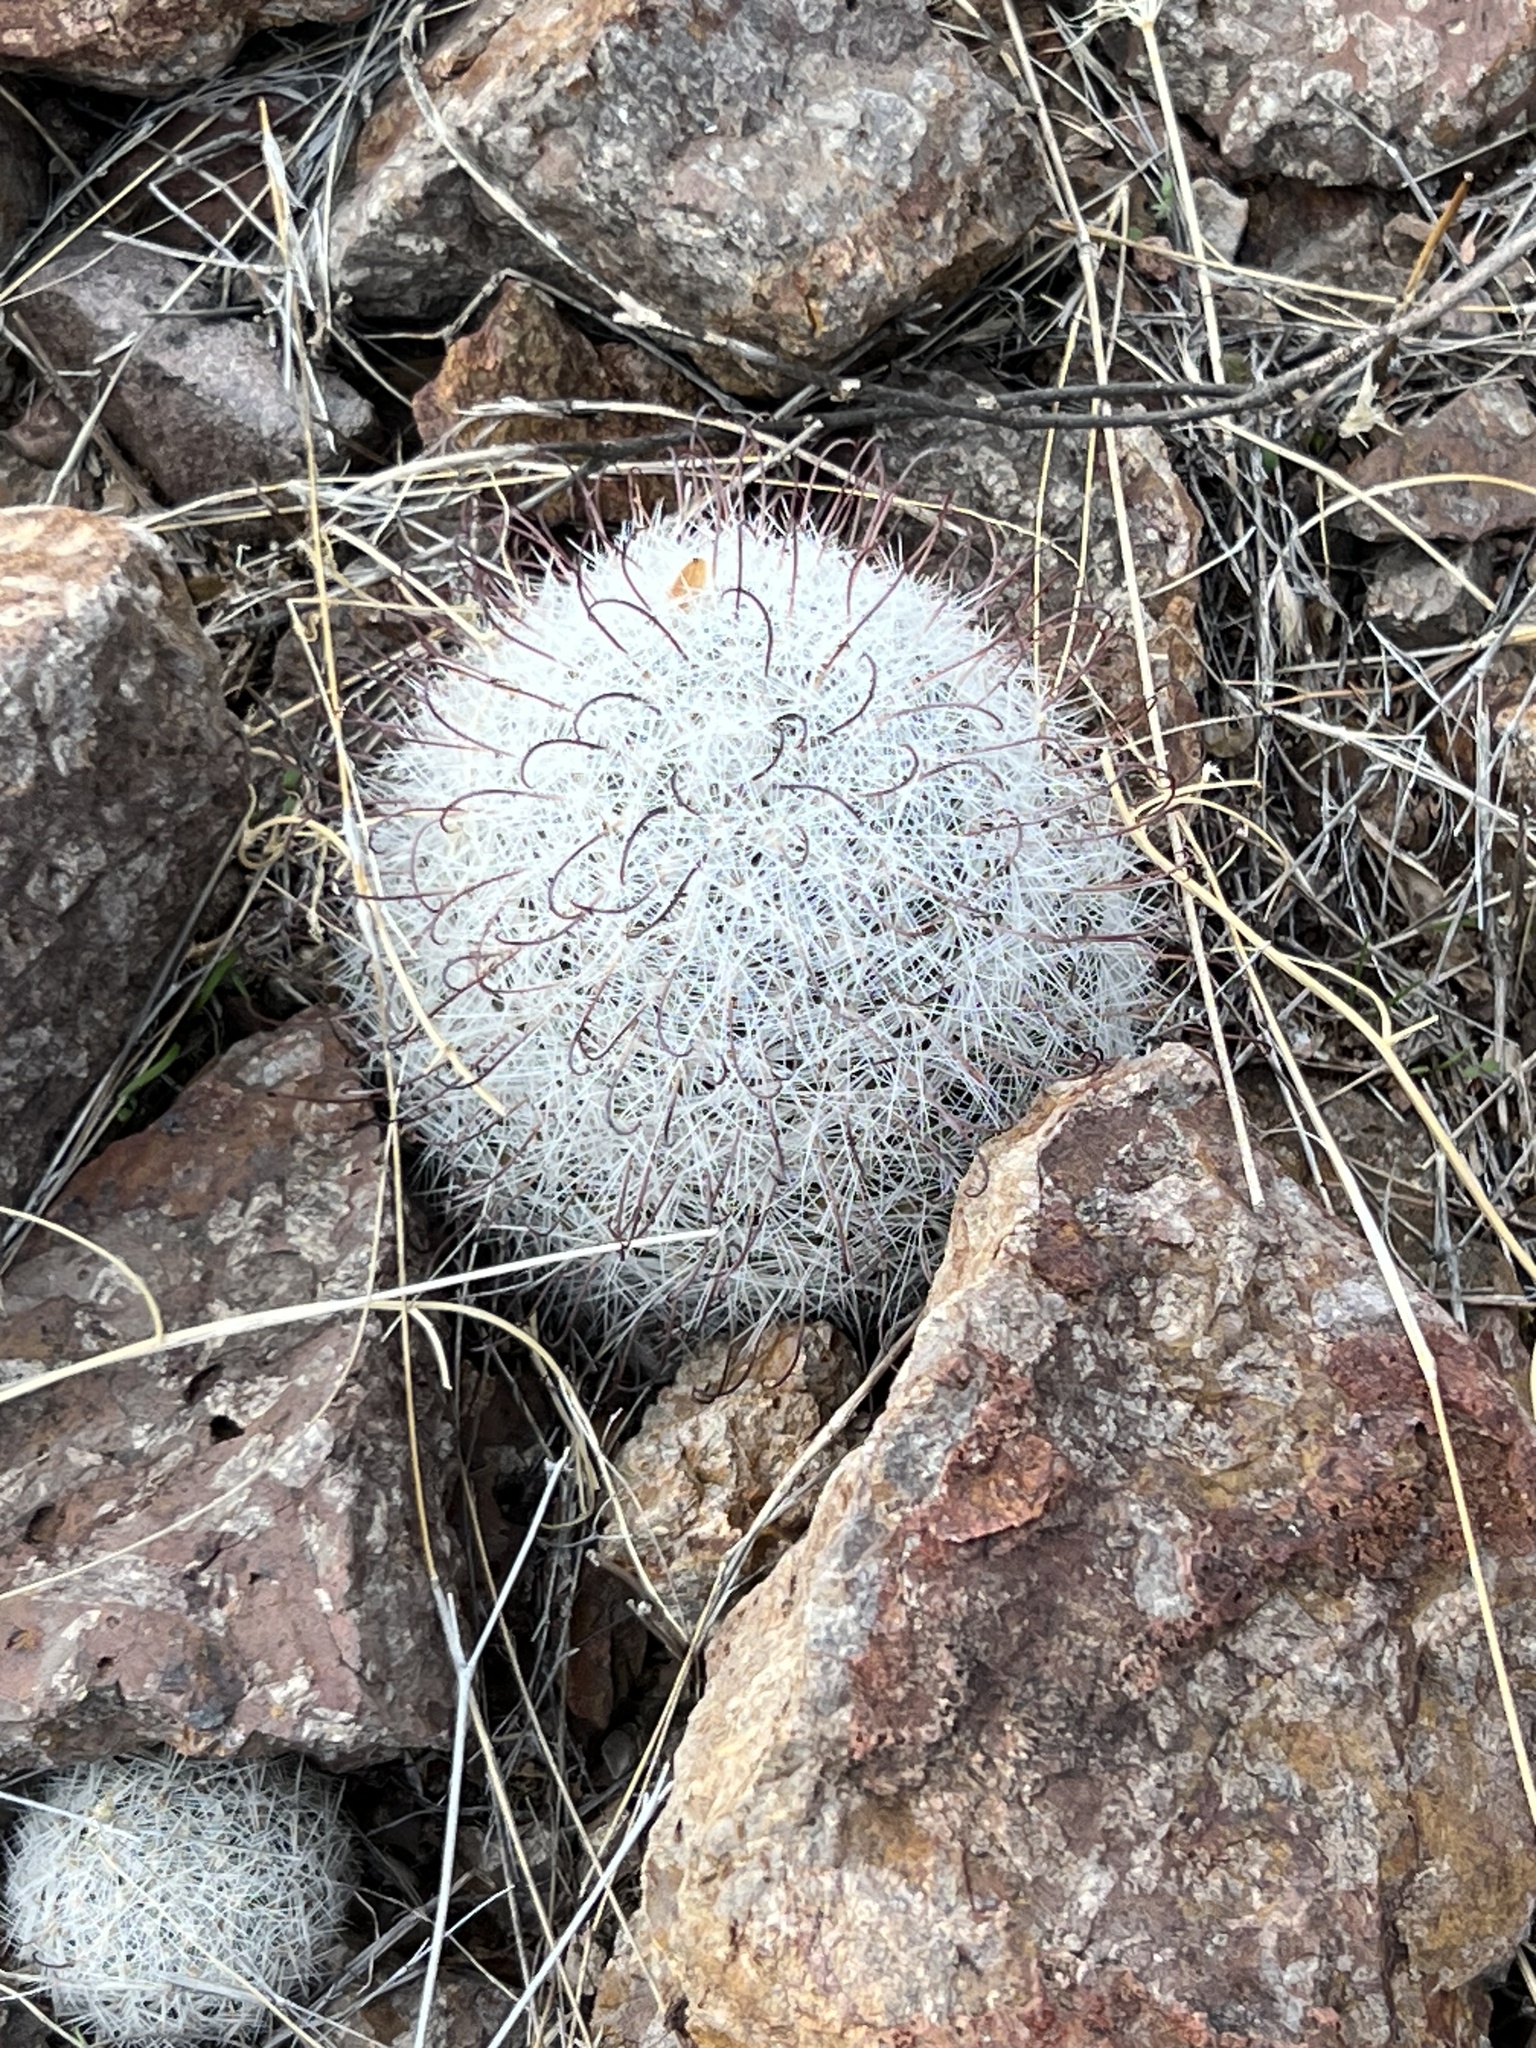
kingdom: Plantae
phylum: Tracheophyta
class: Magnoliopsida
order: Caryophyllales
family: Cactaceae
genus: Cochemiea
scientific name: Cochemiea grahamii
